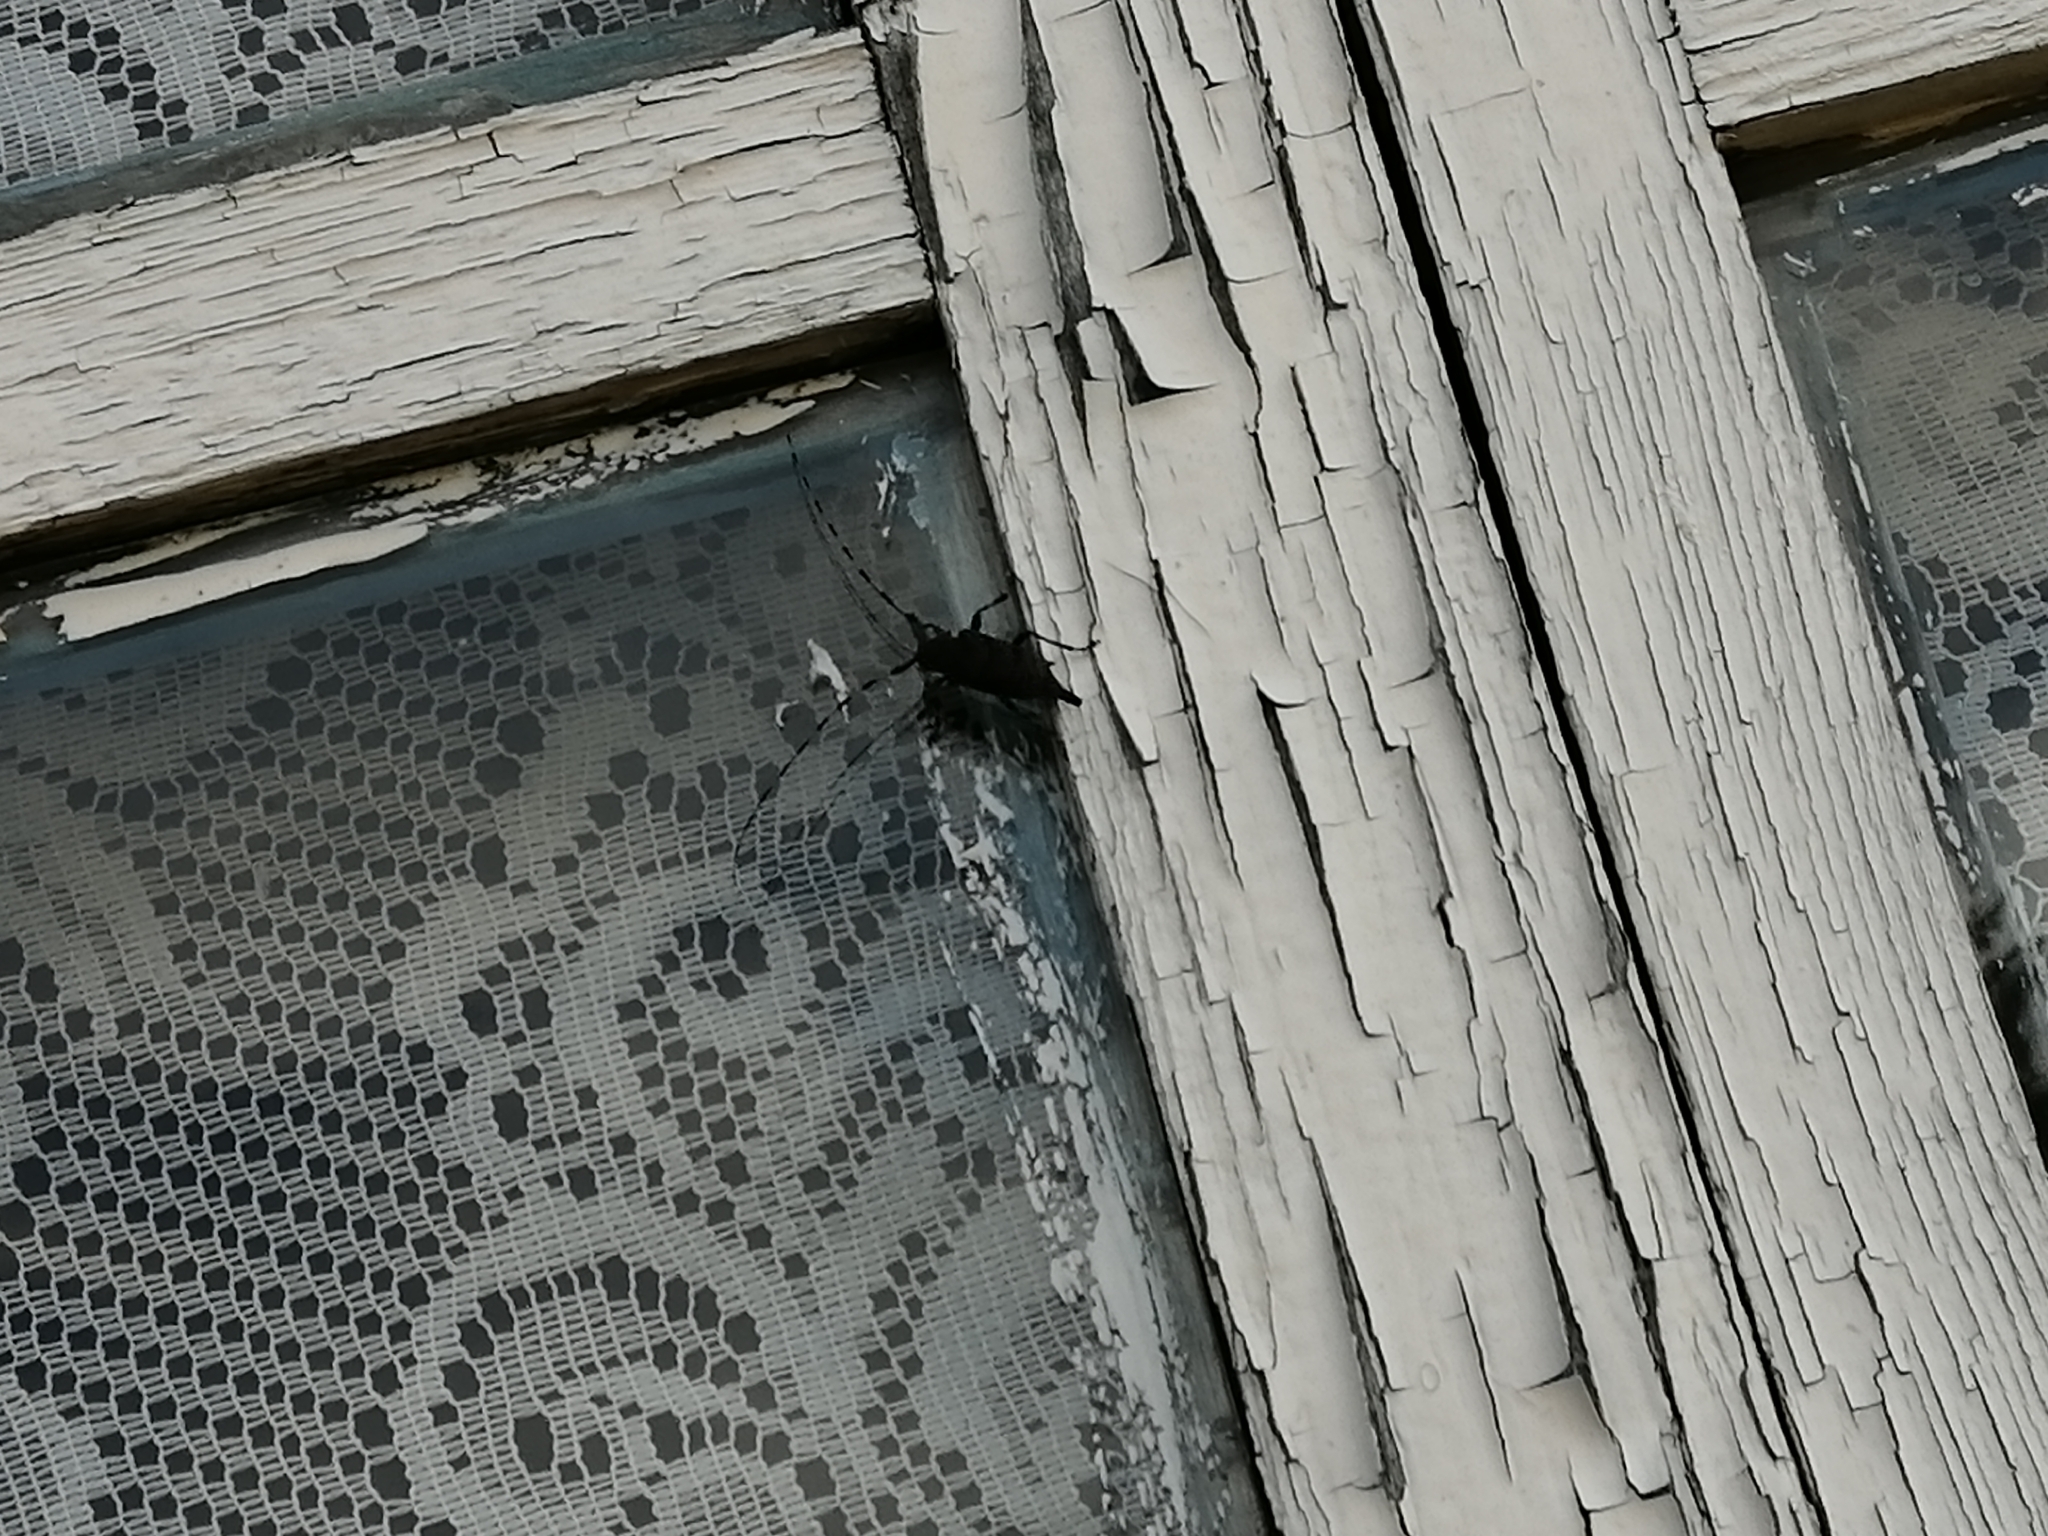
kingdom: Animalia
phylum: Arthropoda
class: Insecta
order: Coleoptera
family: Cerambycidae
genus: Acanthocinus
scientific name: Acanthocinus aedilis
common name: Timberman beetle
